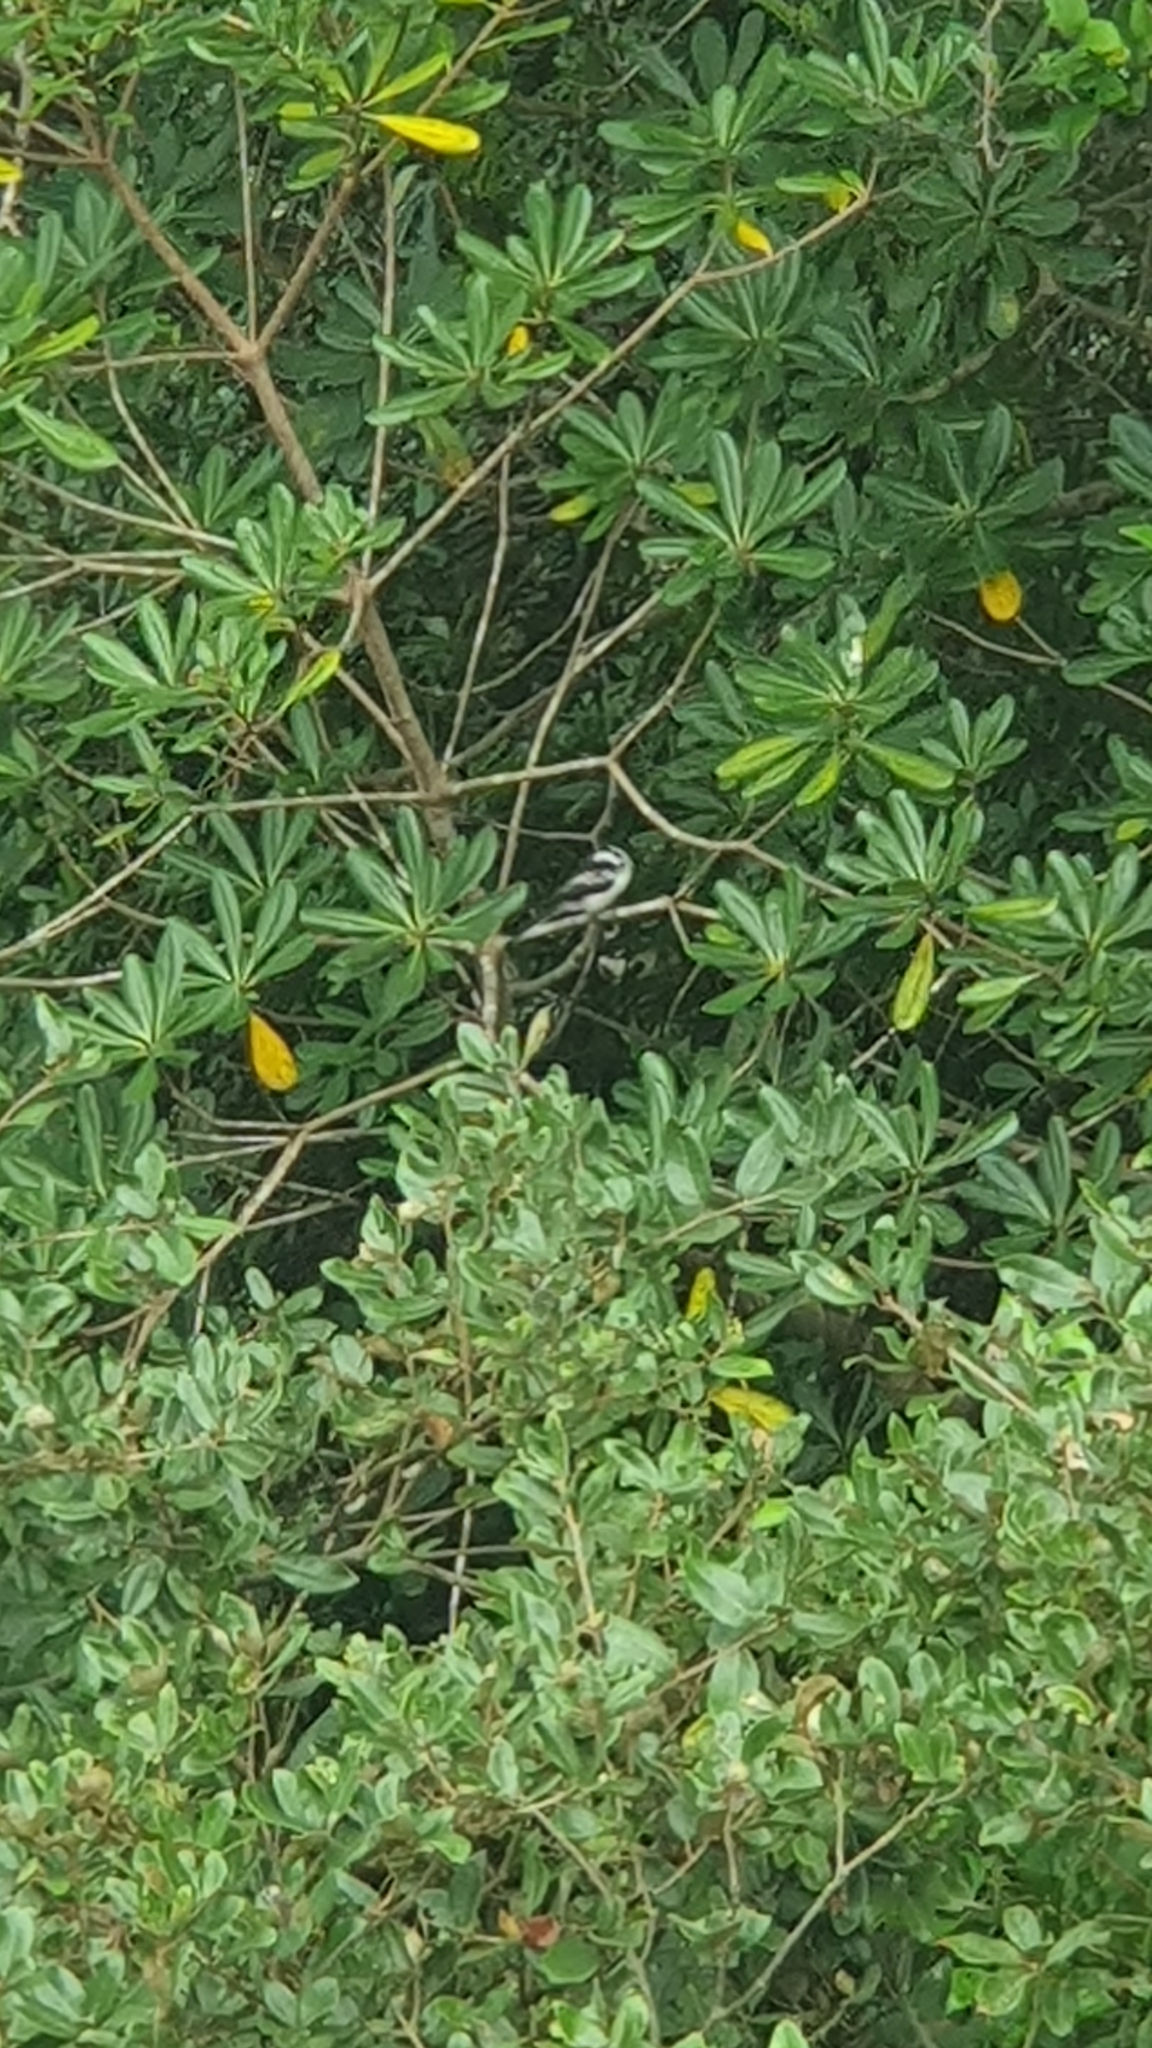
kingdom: Animalia
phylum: Chordata
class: Aves
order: Passeriformes
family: Aegithalidae
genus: Aegithalos
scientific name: Aegithalos caudatus
